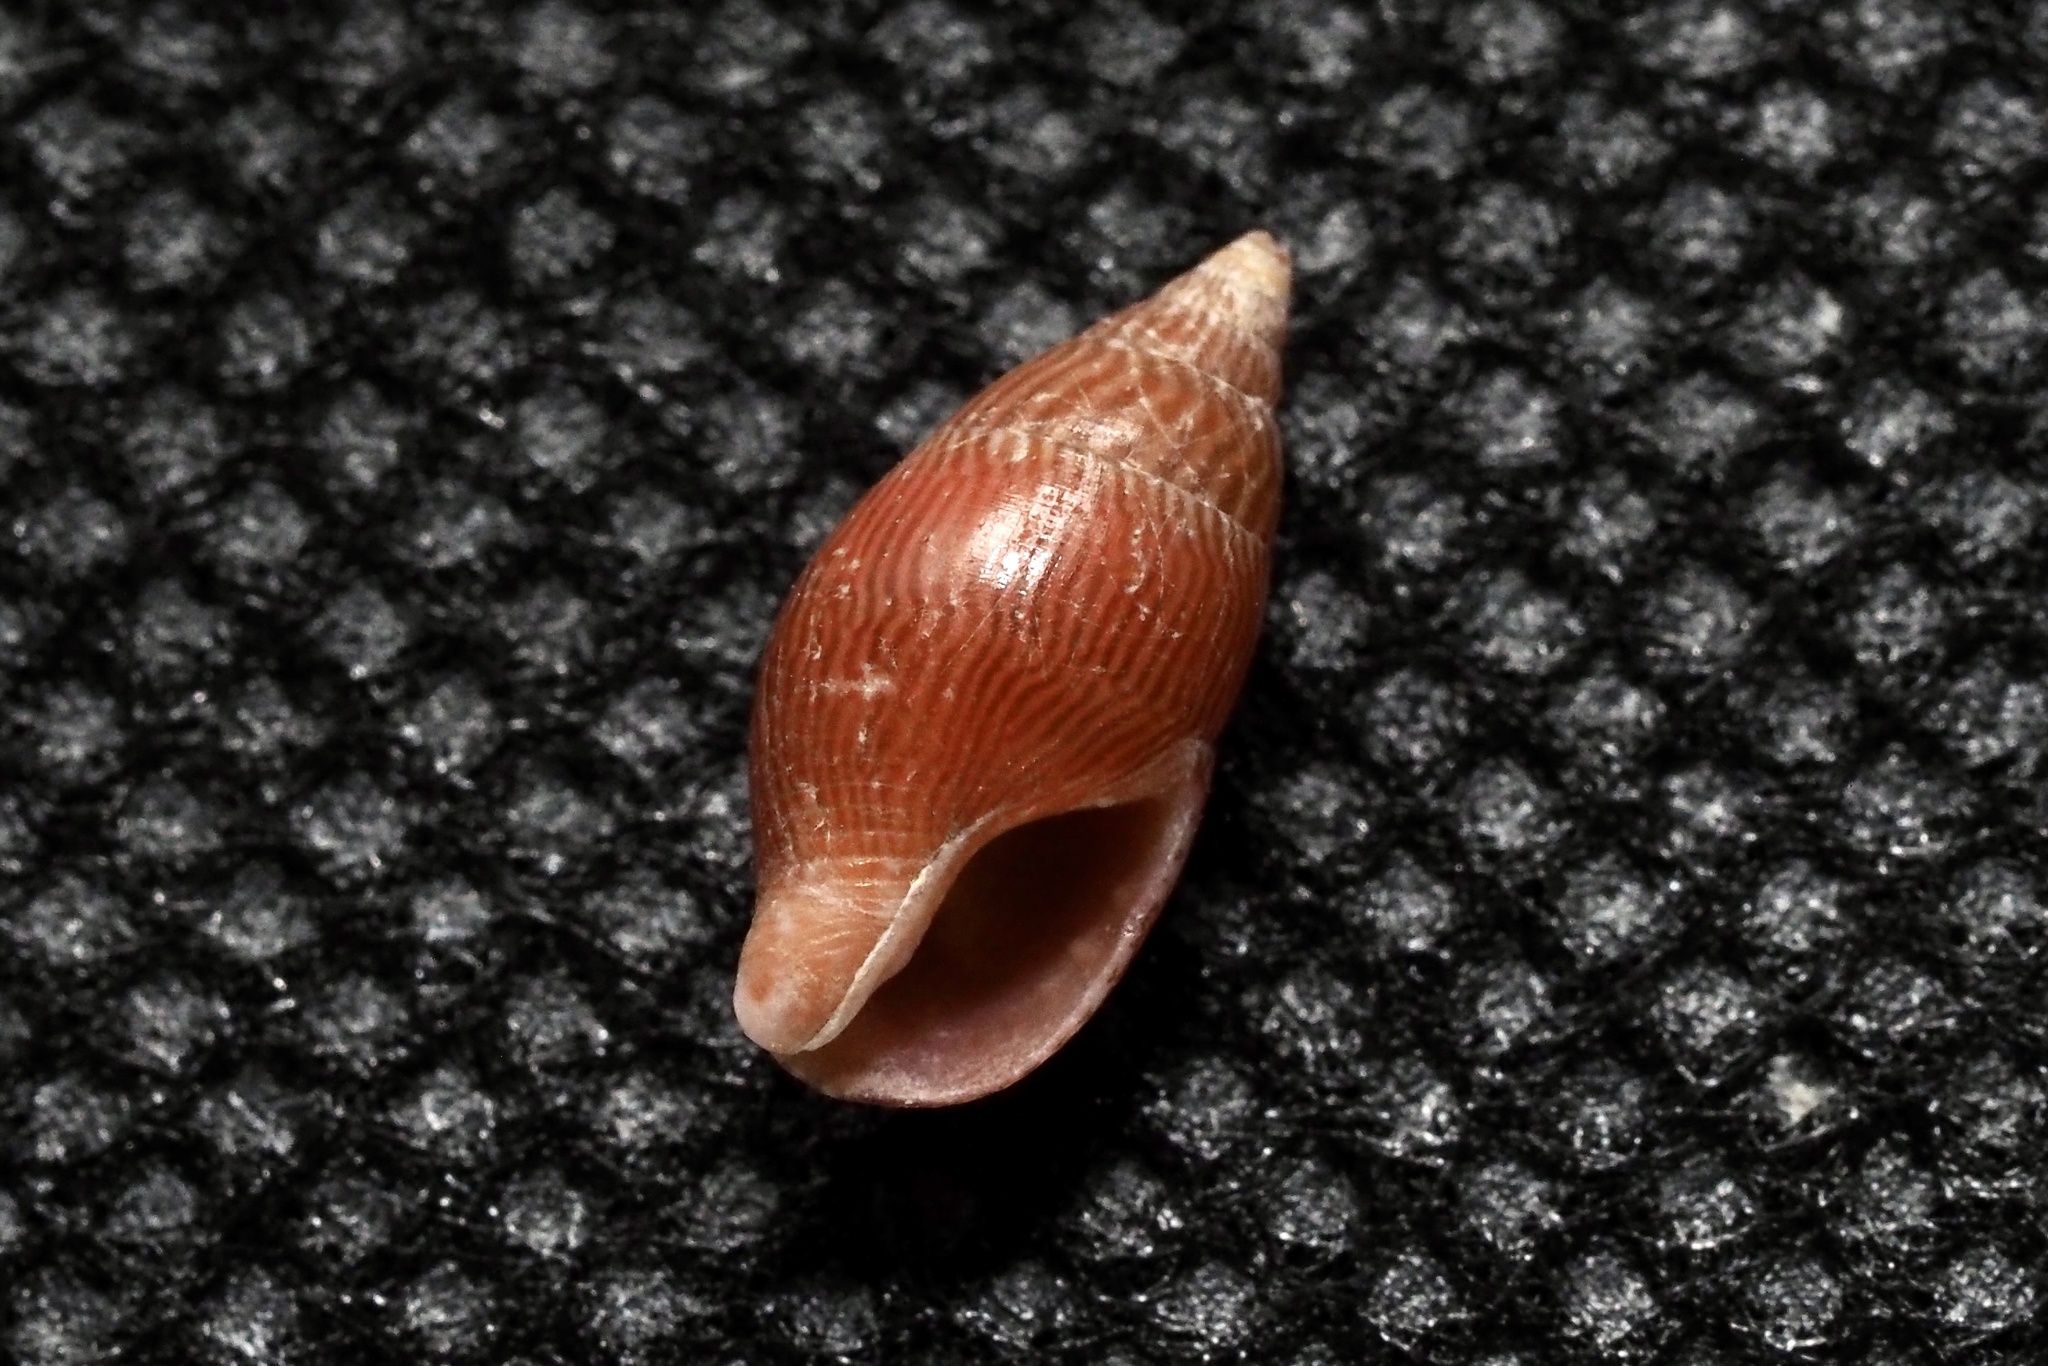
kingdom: Animalia
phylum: Mollusca
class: Gastropoda
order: Neogastropoda
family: Columbellidae
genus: Mitrella
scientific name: Mitrella bicincta
